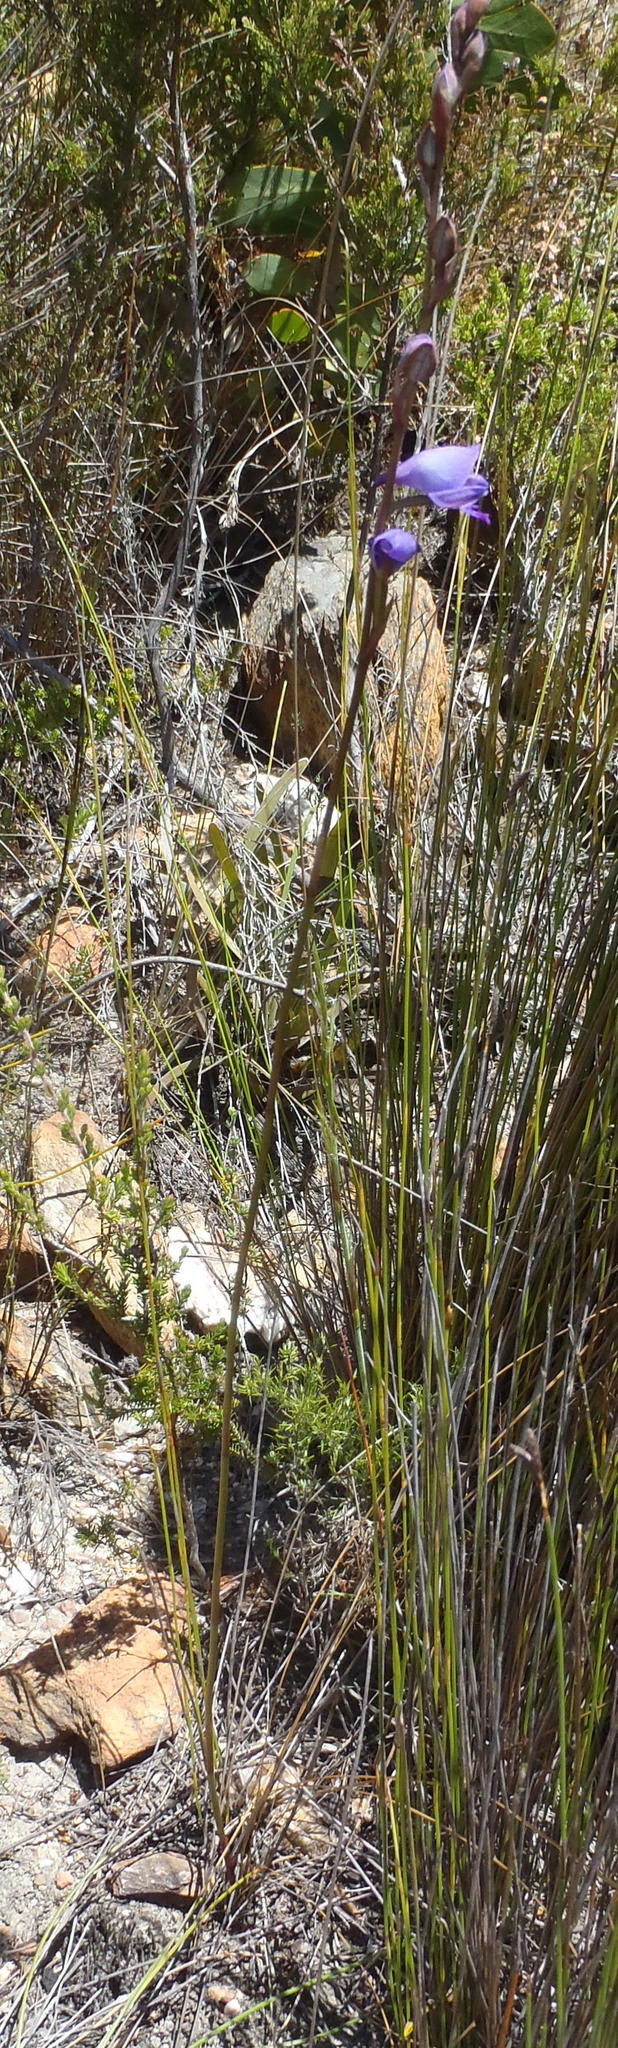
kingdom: Plantae
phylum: Tracheophyta
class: Liliopsida
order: Asparagales
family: Orchidaceae
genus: Disa
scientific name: Disa hians
